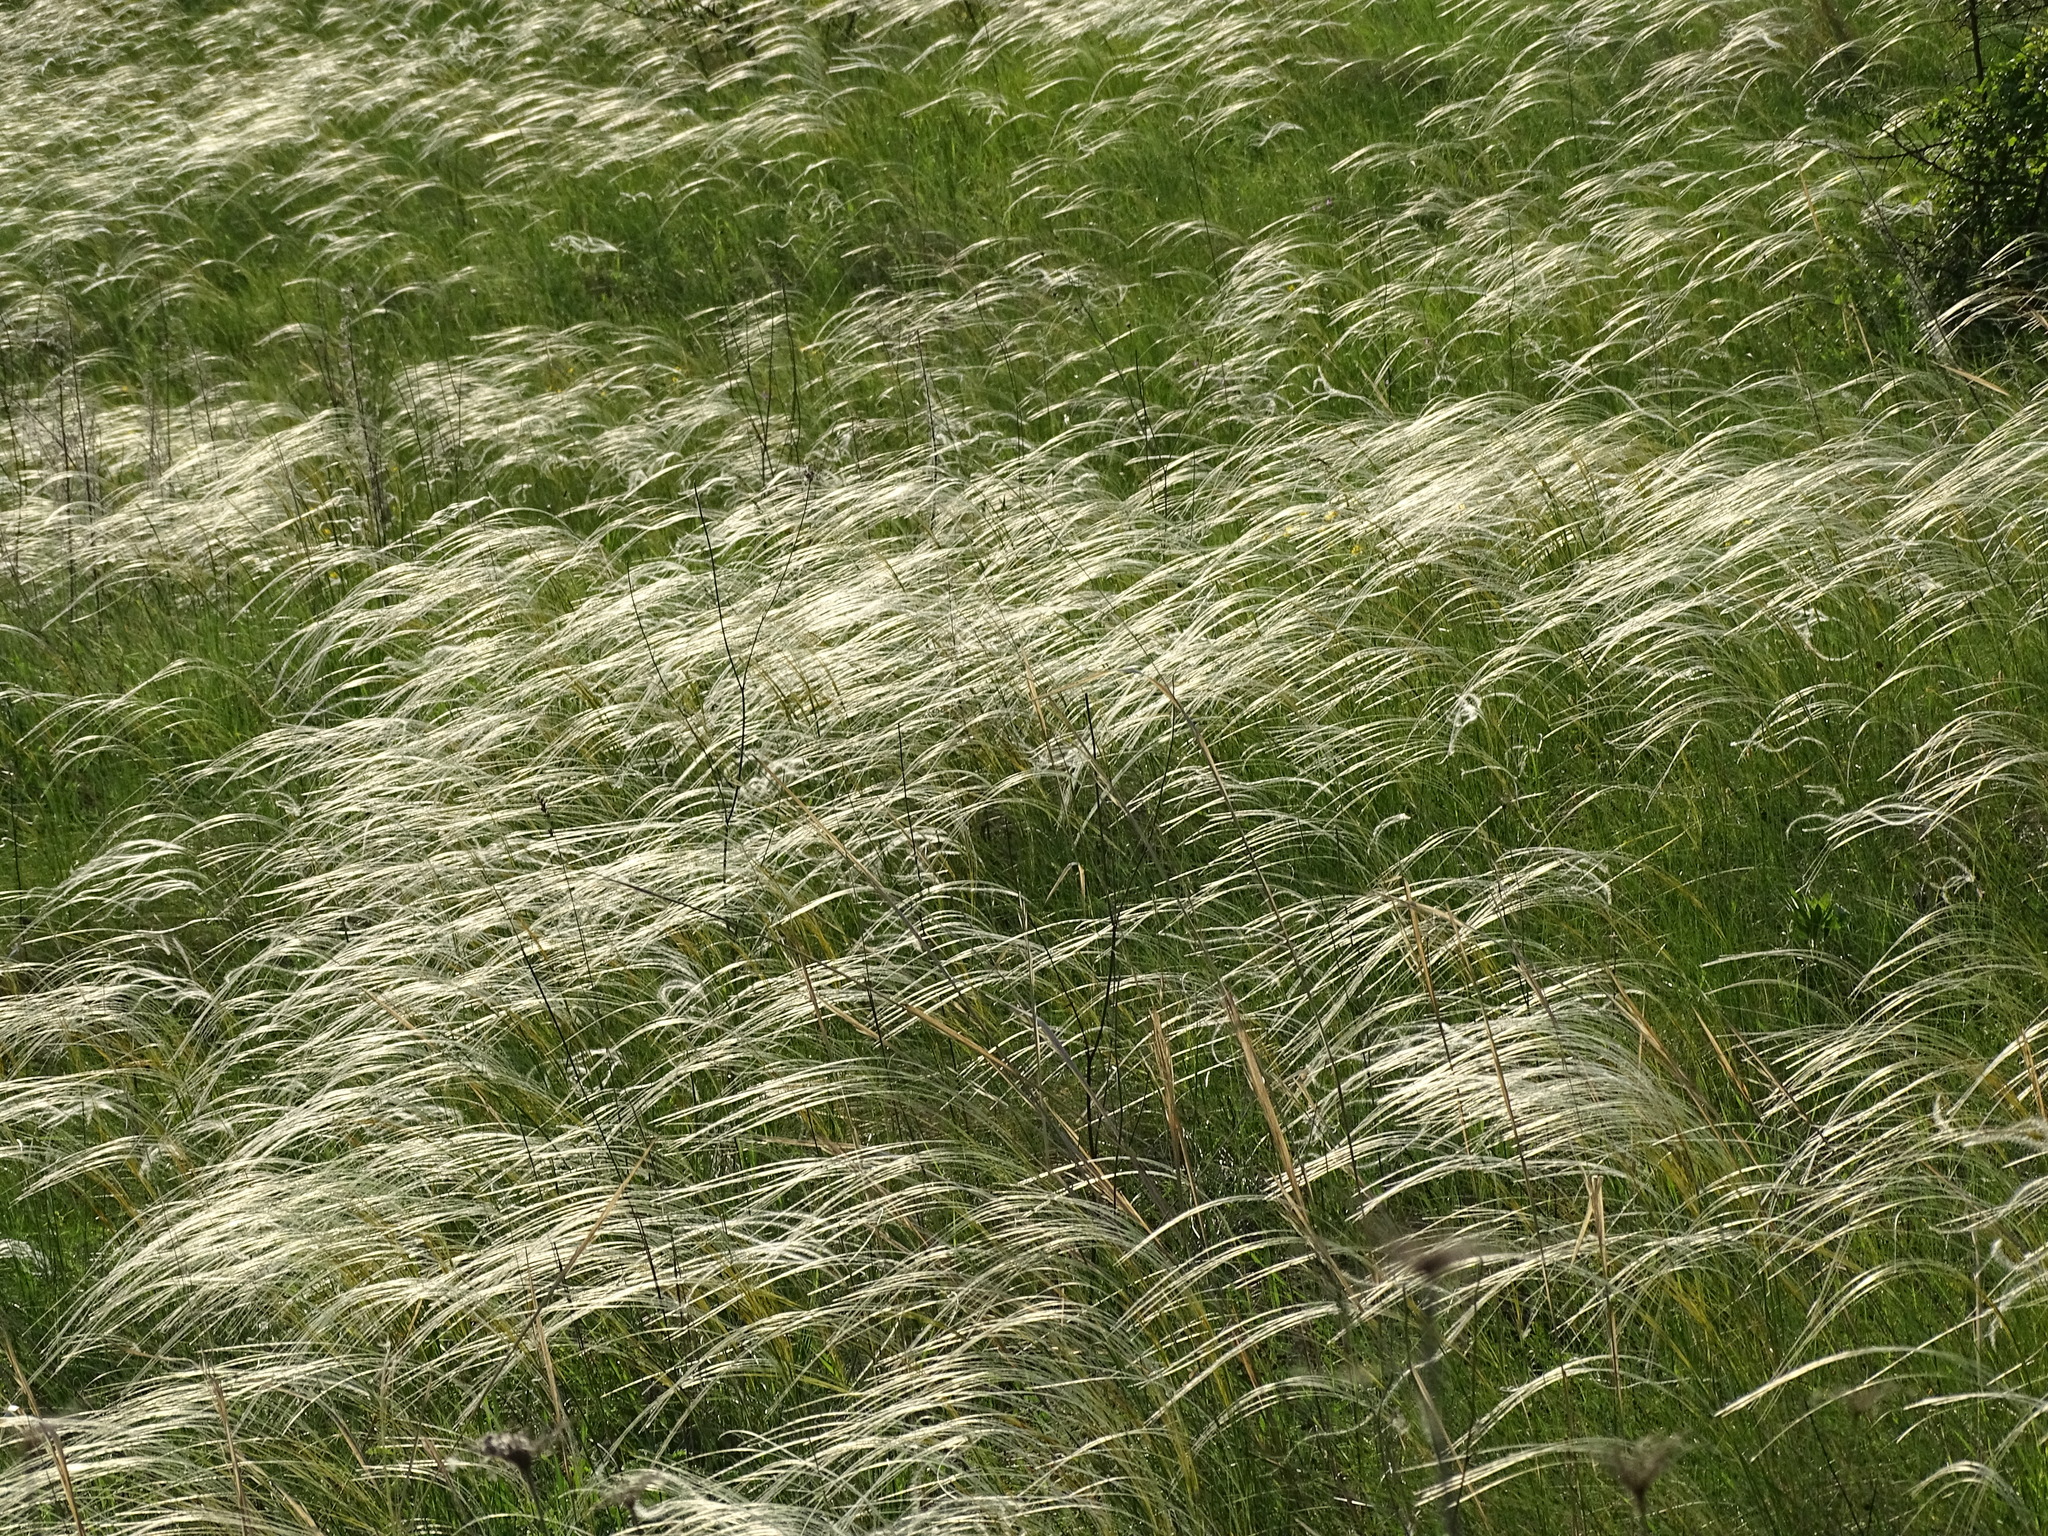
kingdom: Plantae
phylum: Tracheophyta
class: Liliopsida
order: Poales
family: Poaceae
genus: Stipa
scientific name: Stipa pennata
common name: European feather grass
